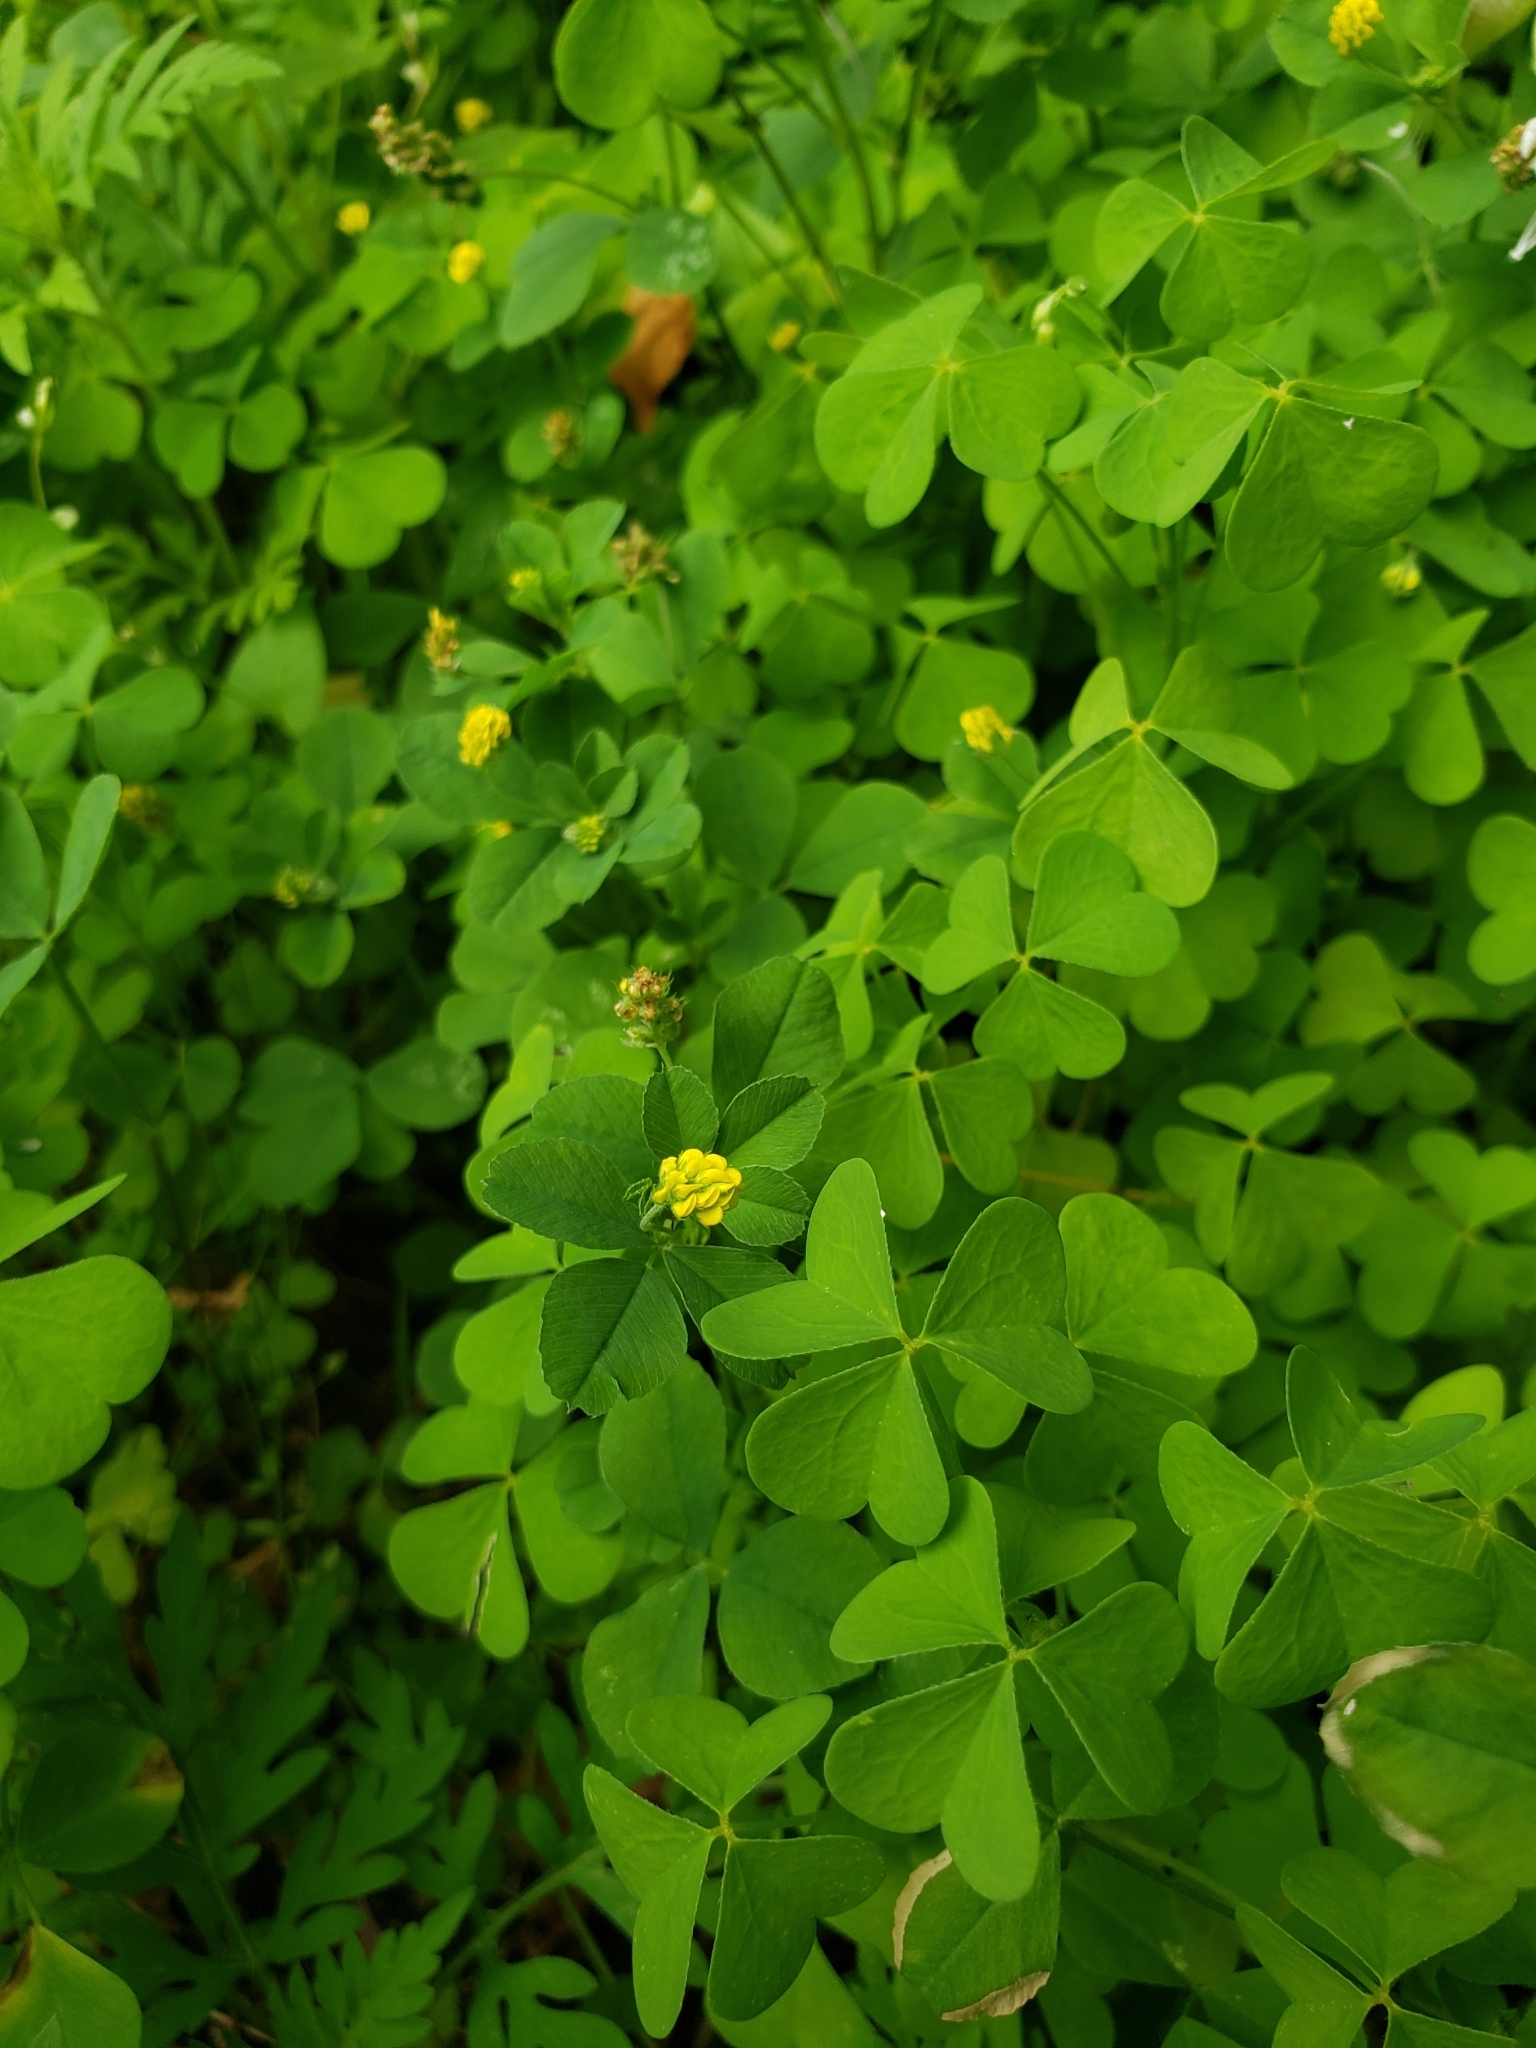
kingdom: Plantae
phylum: Tracheophyta
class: Magnoliopsida
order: Fabales
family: Fabaceae
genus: Medicago
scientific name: Medicago lupulina
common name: Black medick
